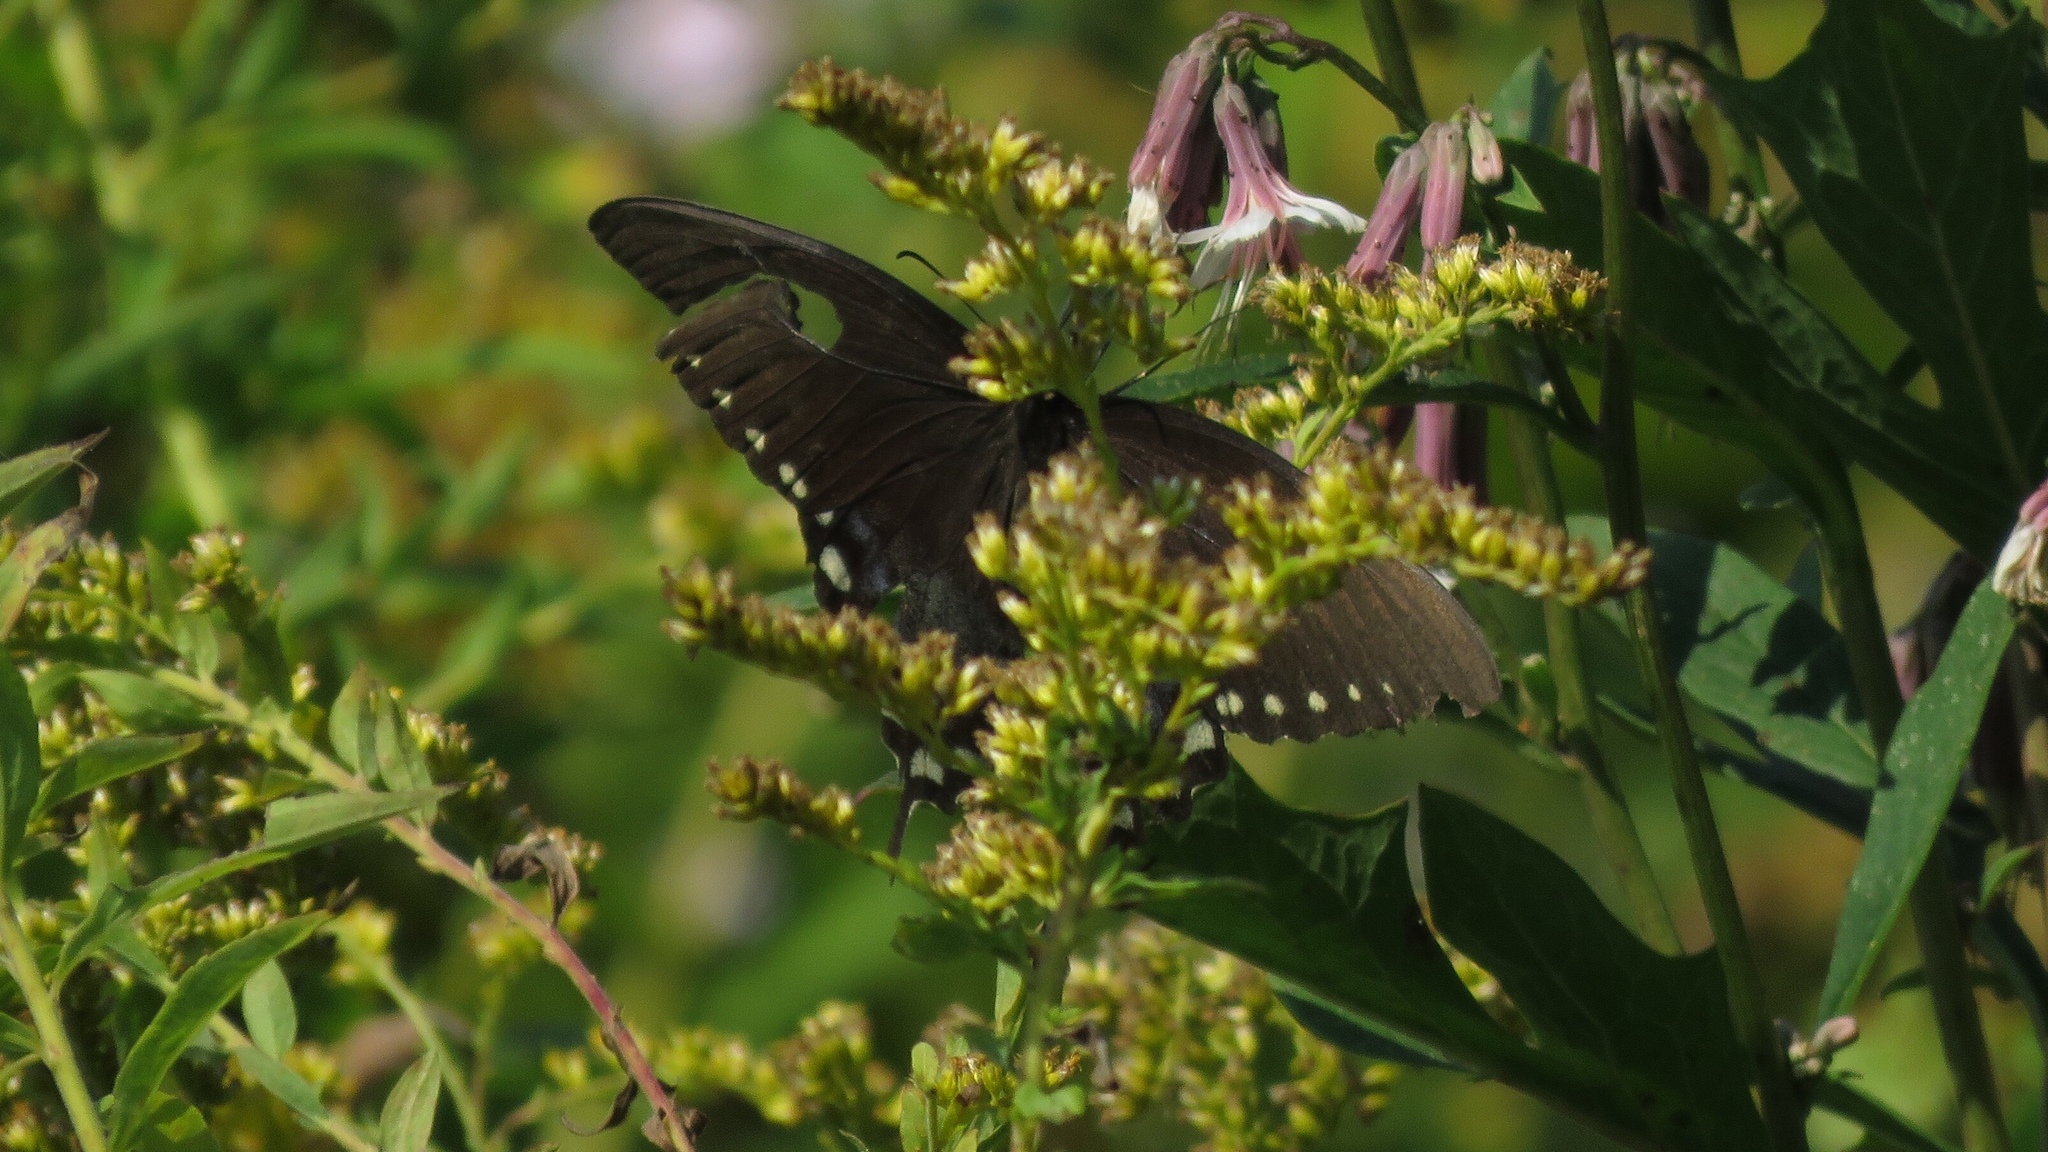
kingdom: Animalia
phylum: Arthropoda
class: Insecta
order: Lepidoptera
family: Papilionidae
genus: Papilio
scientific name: Papilio troilus
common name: Spicebush swallowtail
